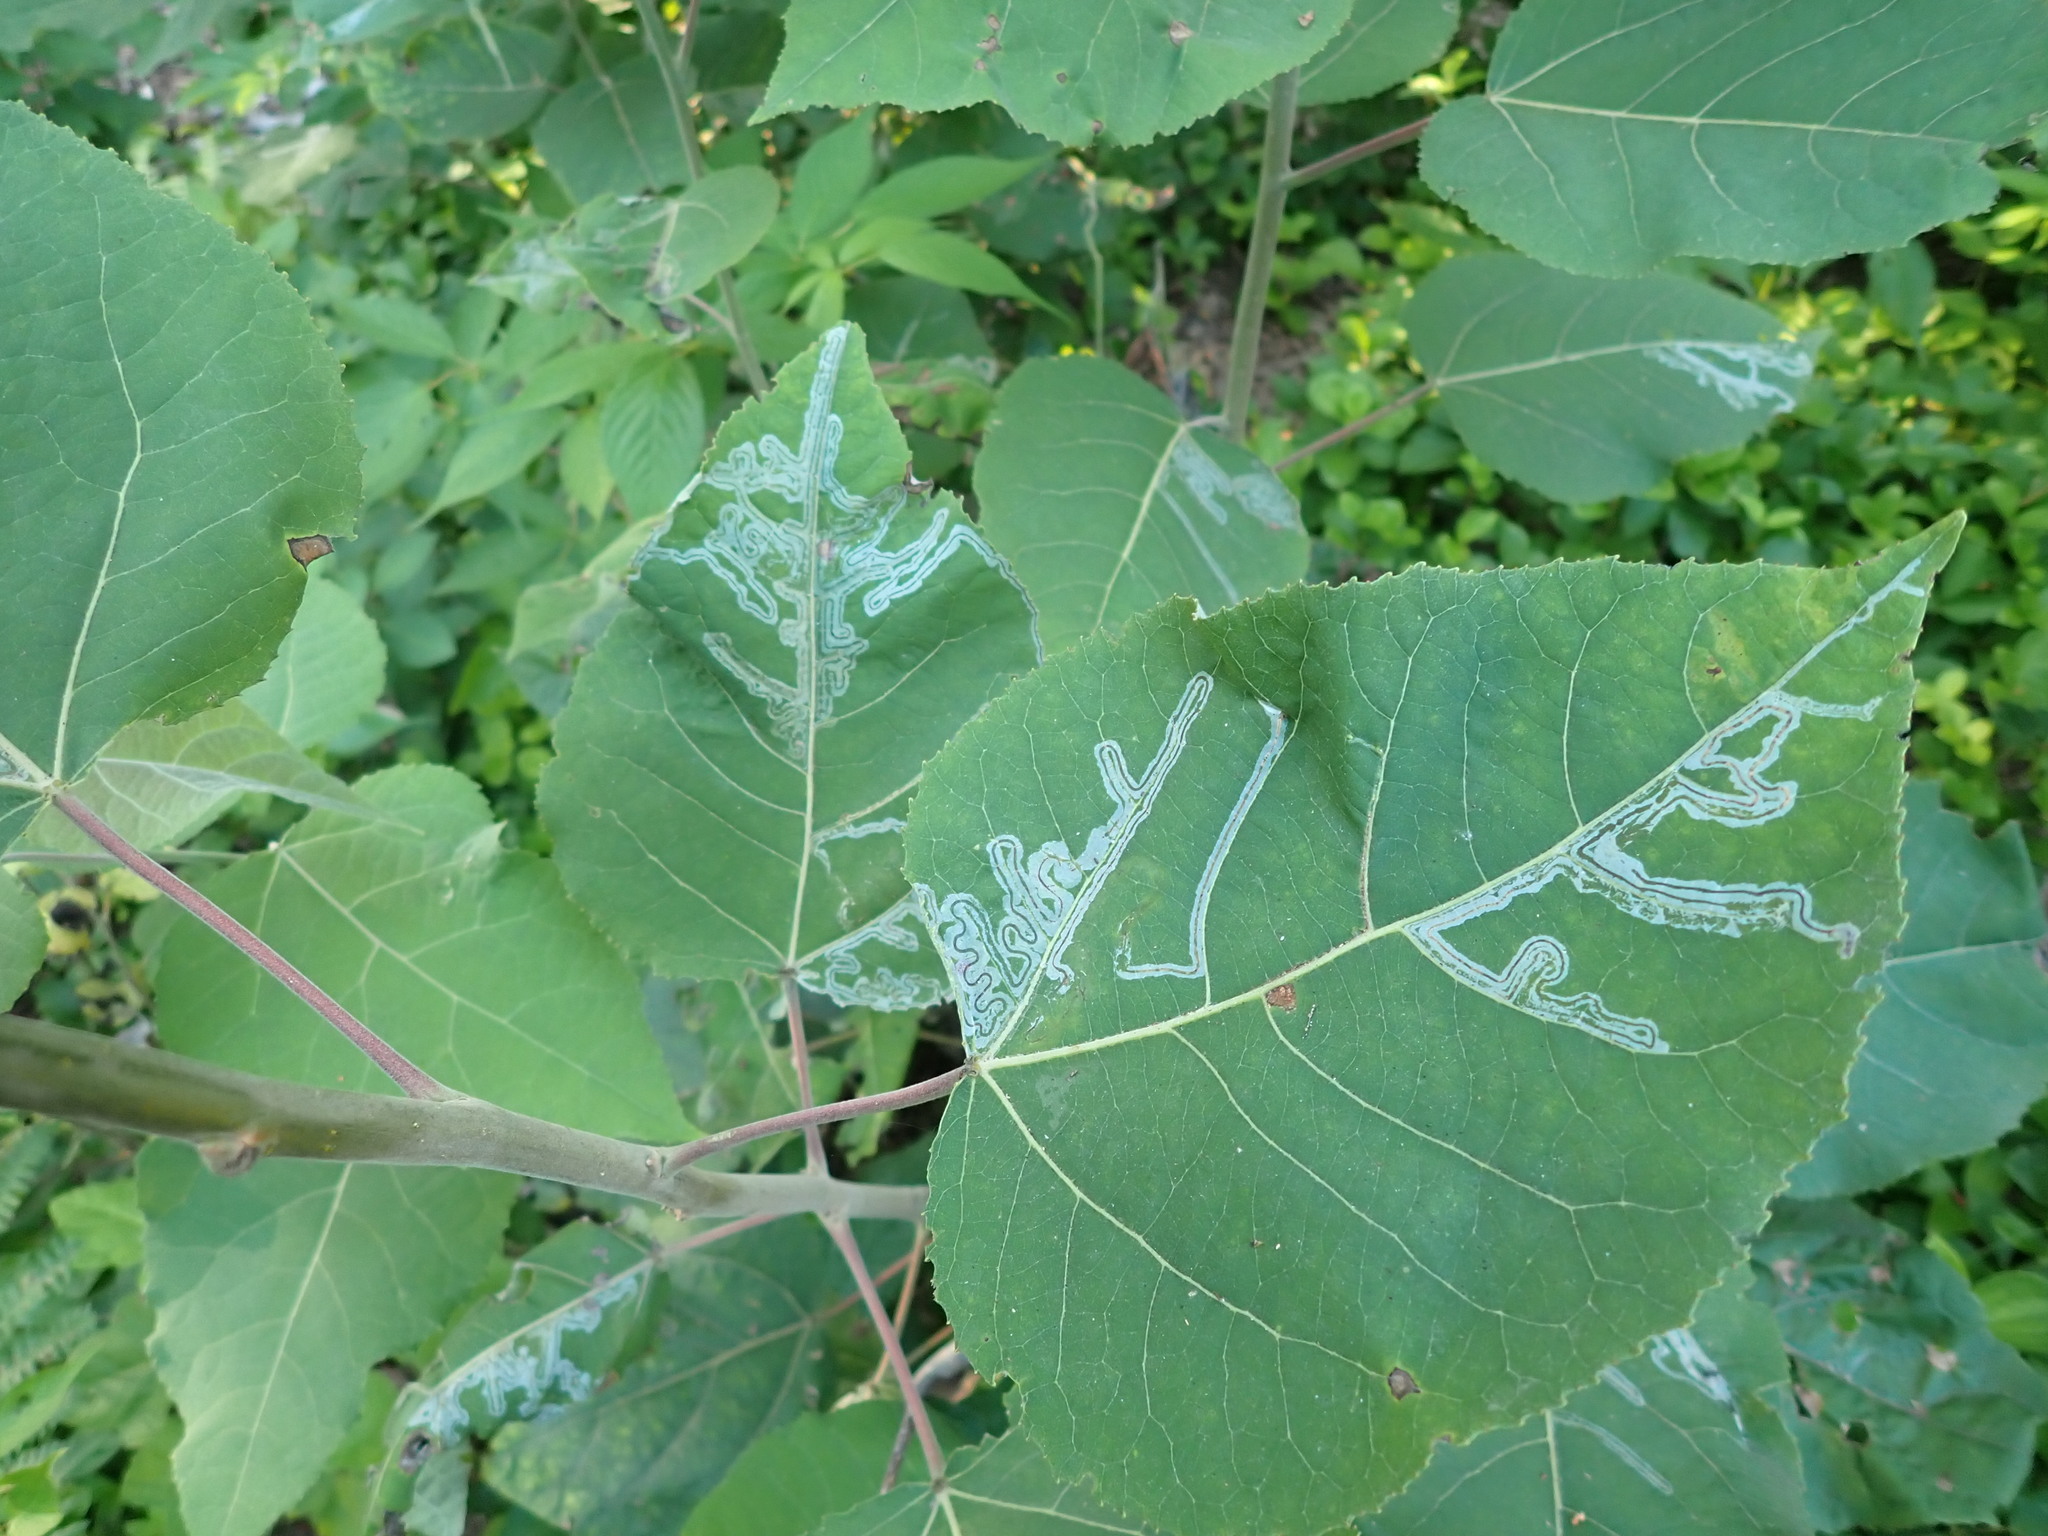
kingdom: Animalia
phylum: Arthropoda
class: Insecta
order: Lepidoptera
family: Gracillariidae
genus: Phyllocnistis
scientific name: Phyllocnistis populiella
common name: Aspen serpentine leafminer moth
